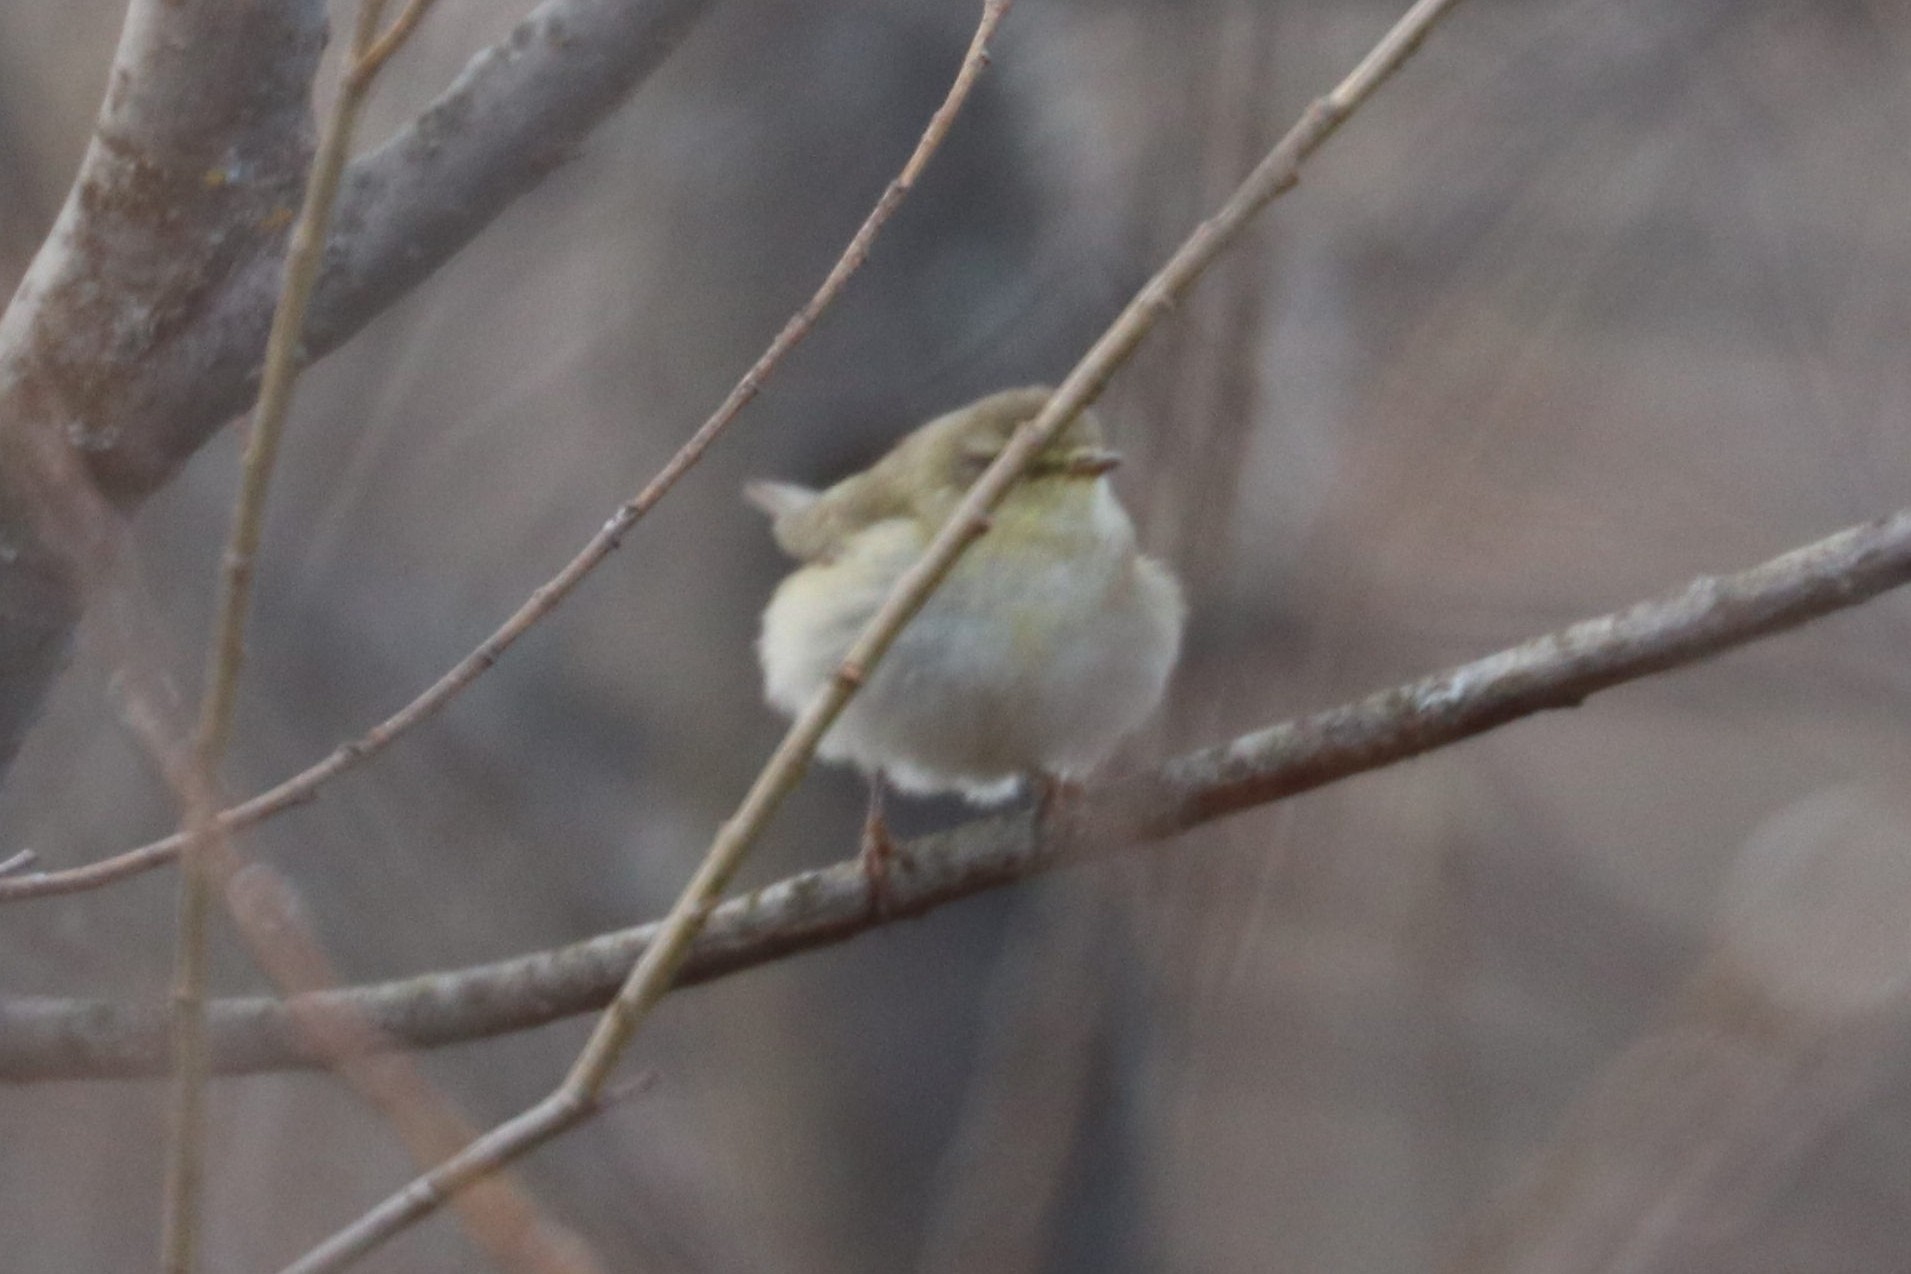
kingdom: Animalia
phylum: Chordata
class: Aves
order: Passeriformes
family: Phylloscopidae
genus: Phylloscopus
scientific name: Phylloscopus trochilus
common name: Willow warbler
